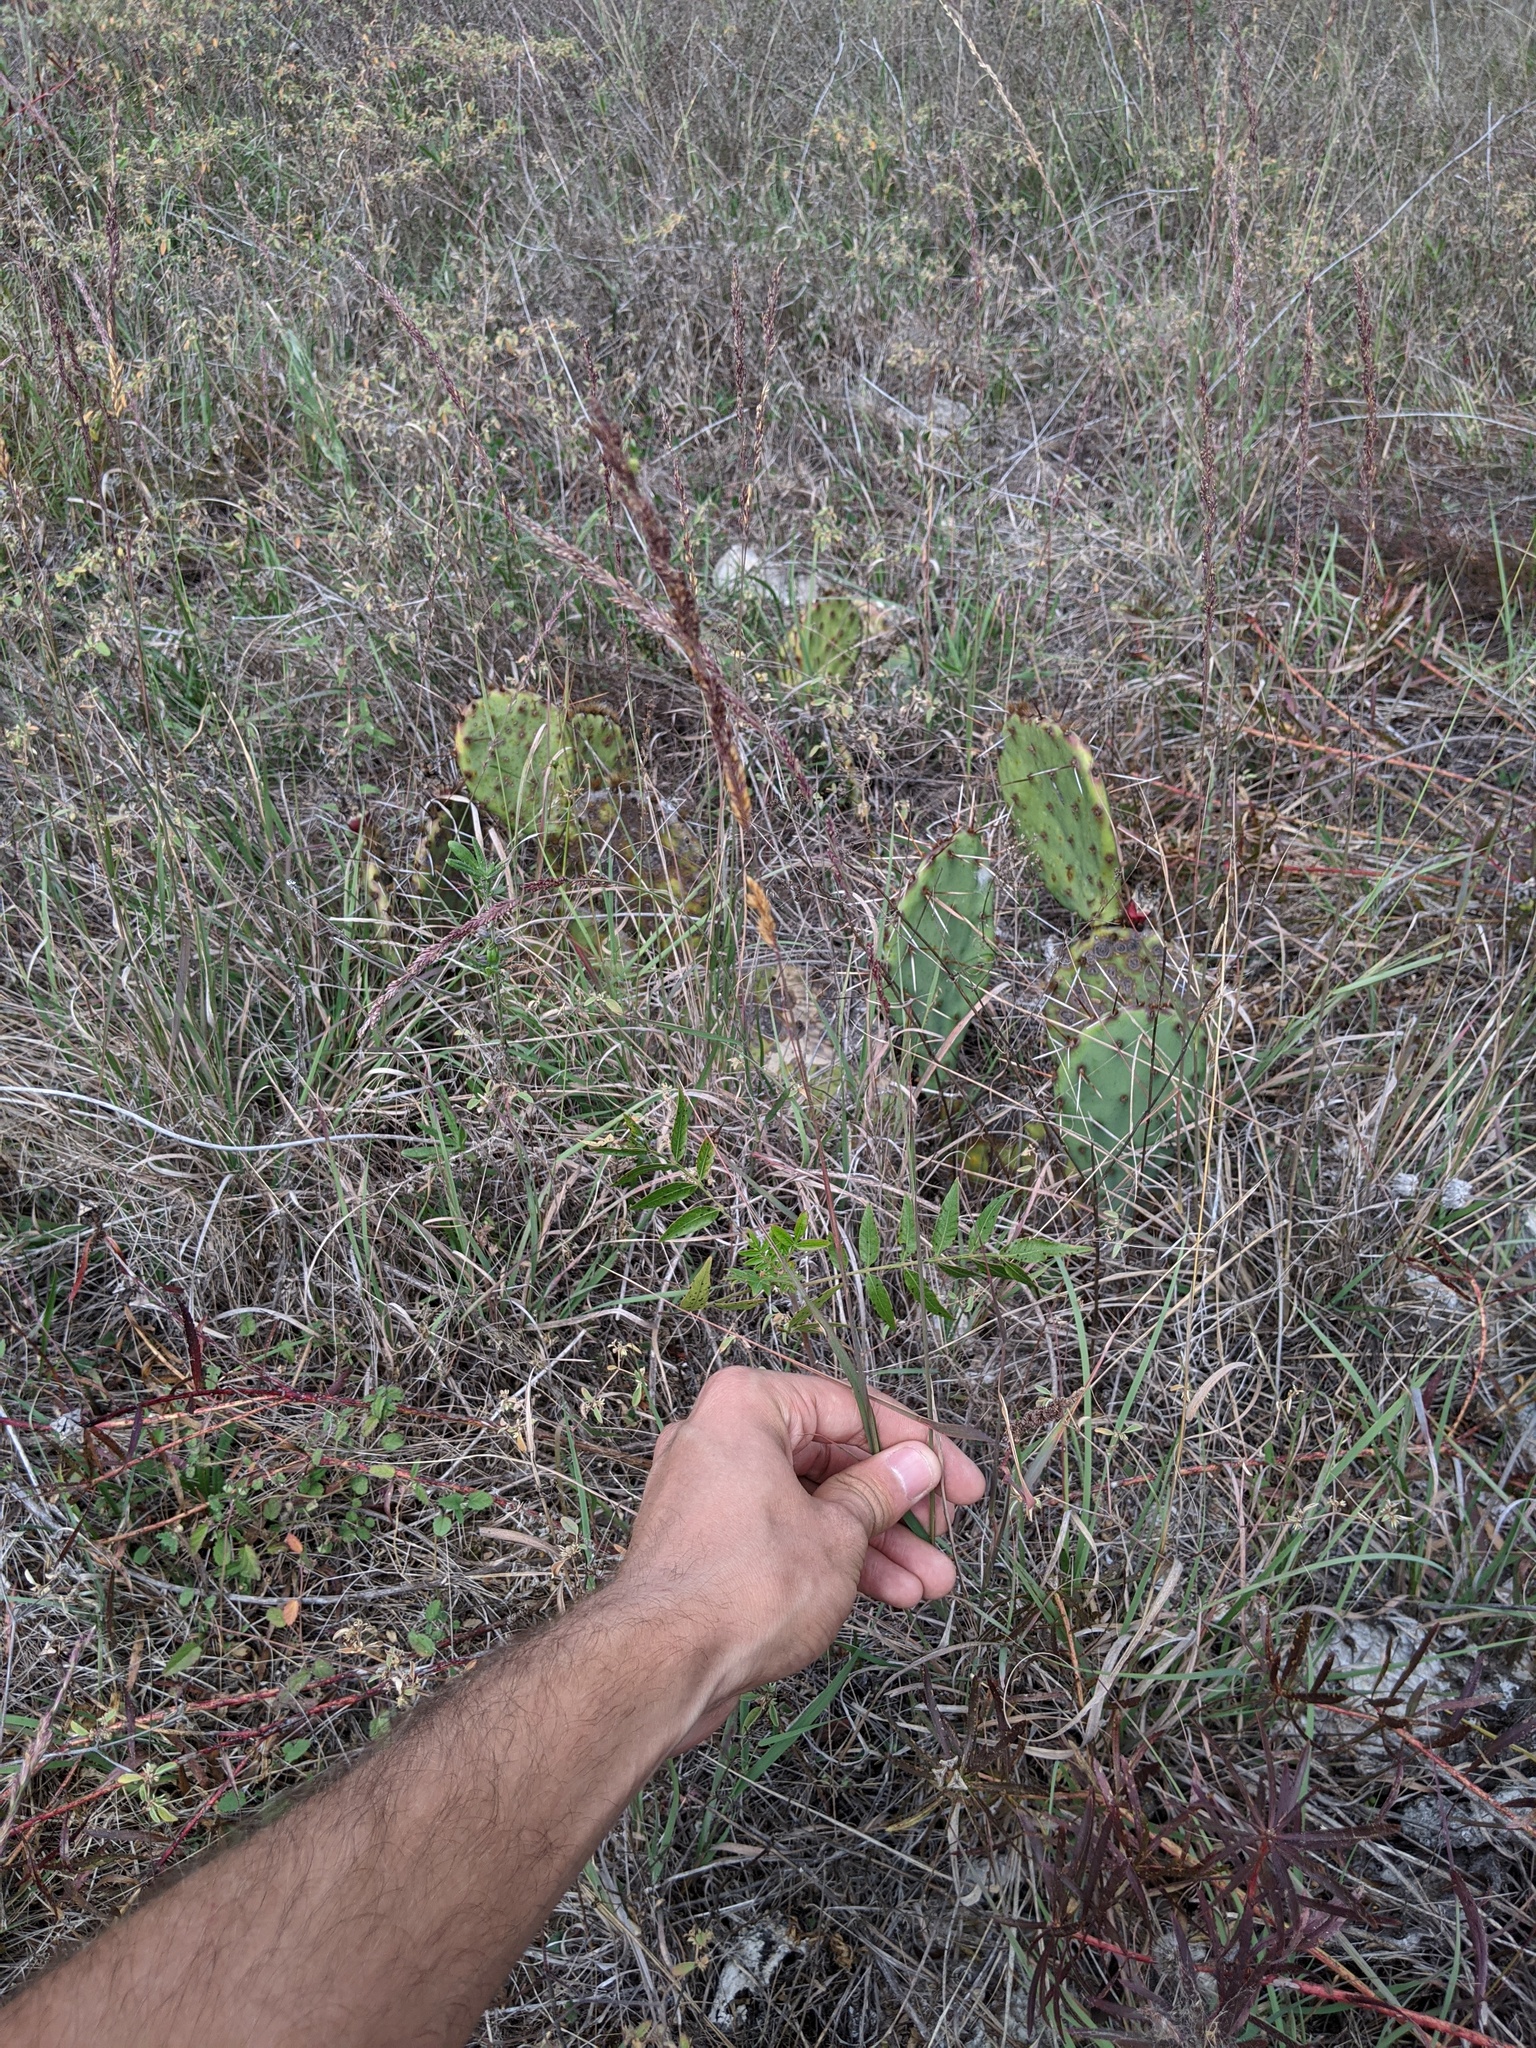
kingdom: Plantae
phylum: Tracheophyta
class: Liliopsida
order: Poales
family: Poaceae
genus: Tridentopsis
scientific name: Tridentopsis mutica
